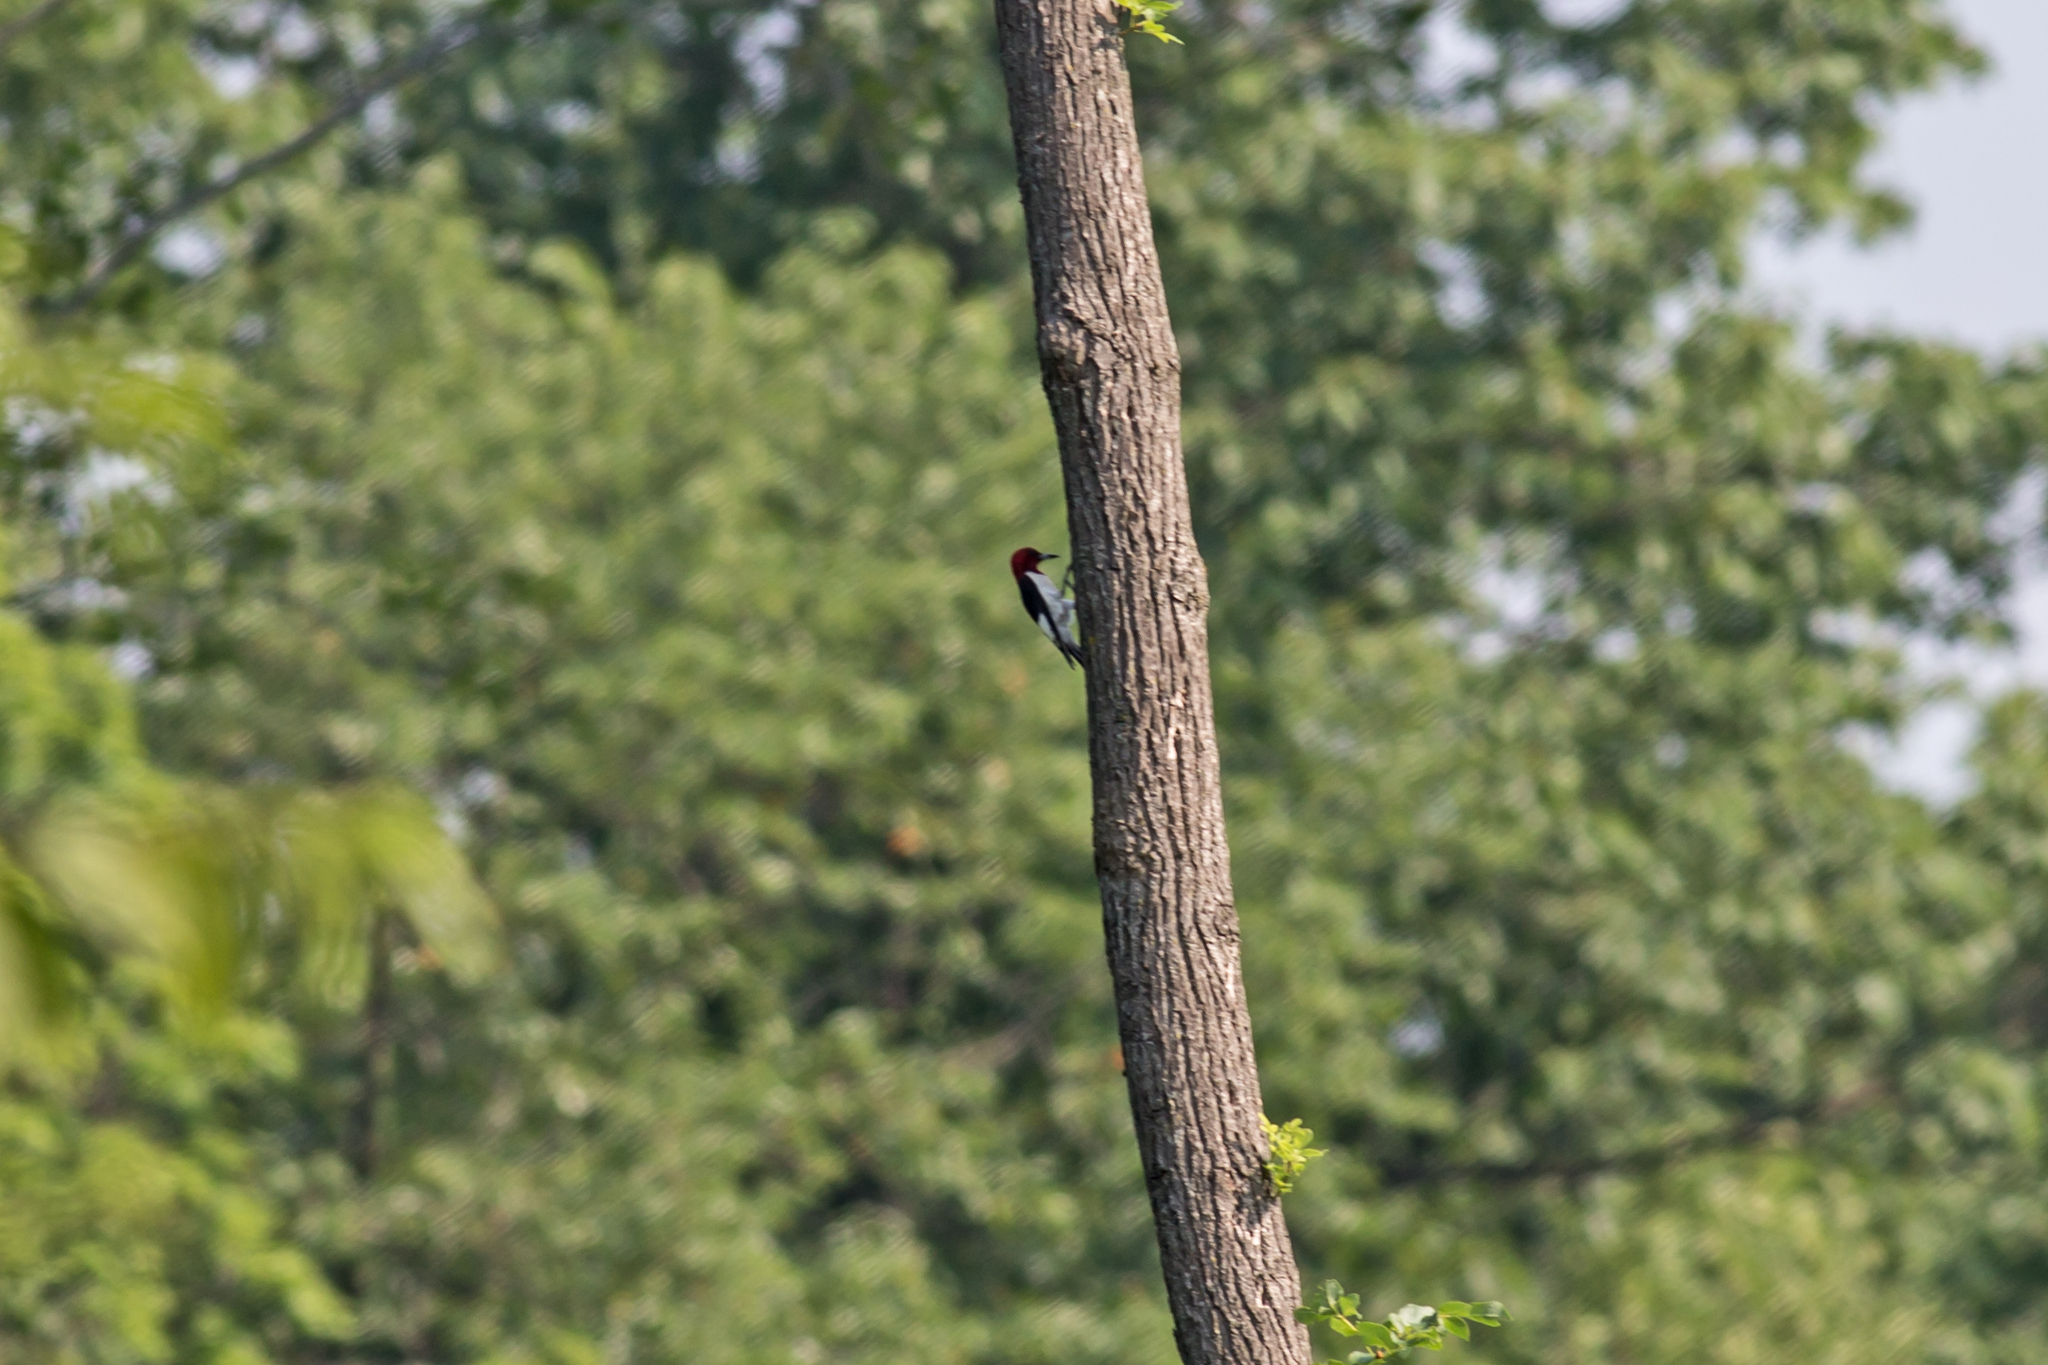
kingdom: Animalia
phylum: Chordata
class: Aves
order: Piciformes
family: Picidae
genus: Melanerpes
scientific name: Melanerpes erythrocephalus
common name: Red-headed woodpecker
